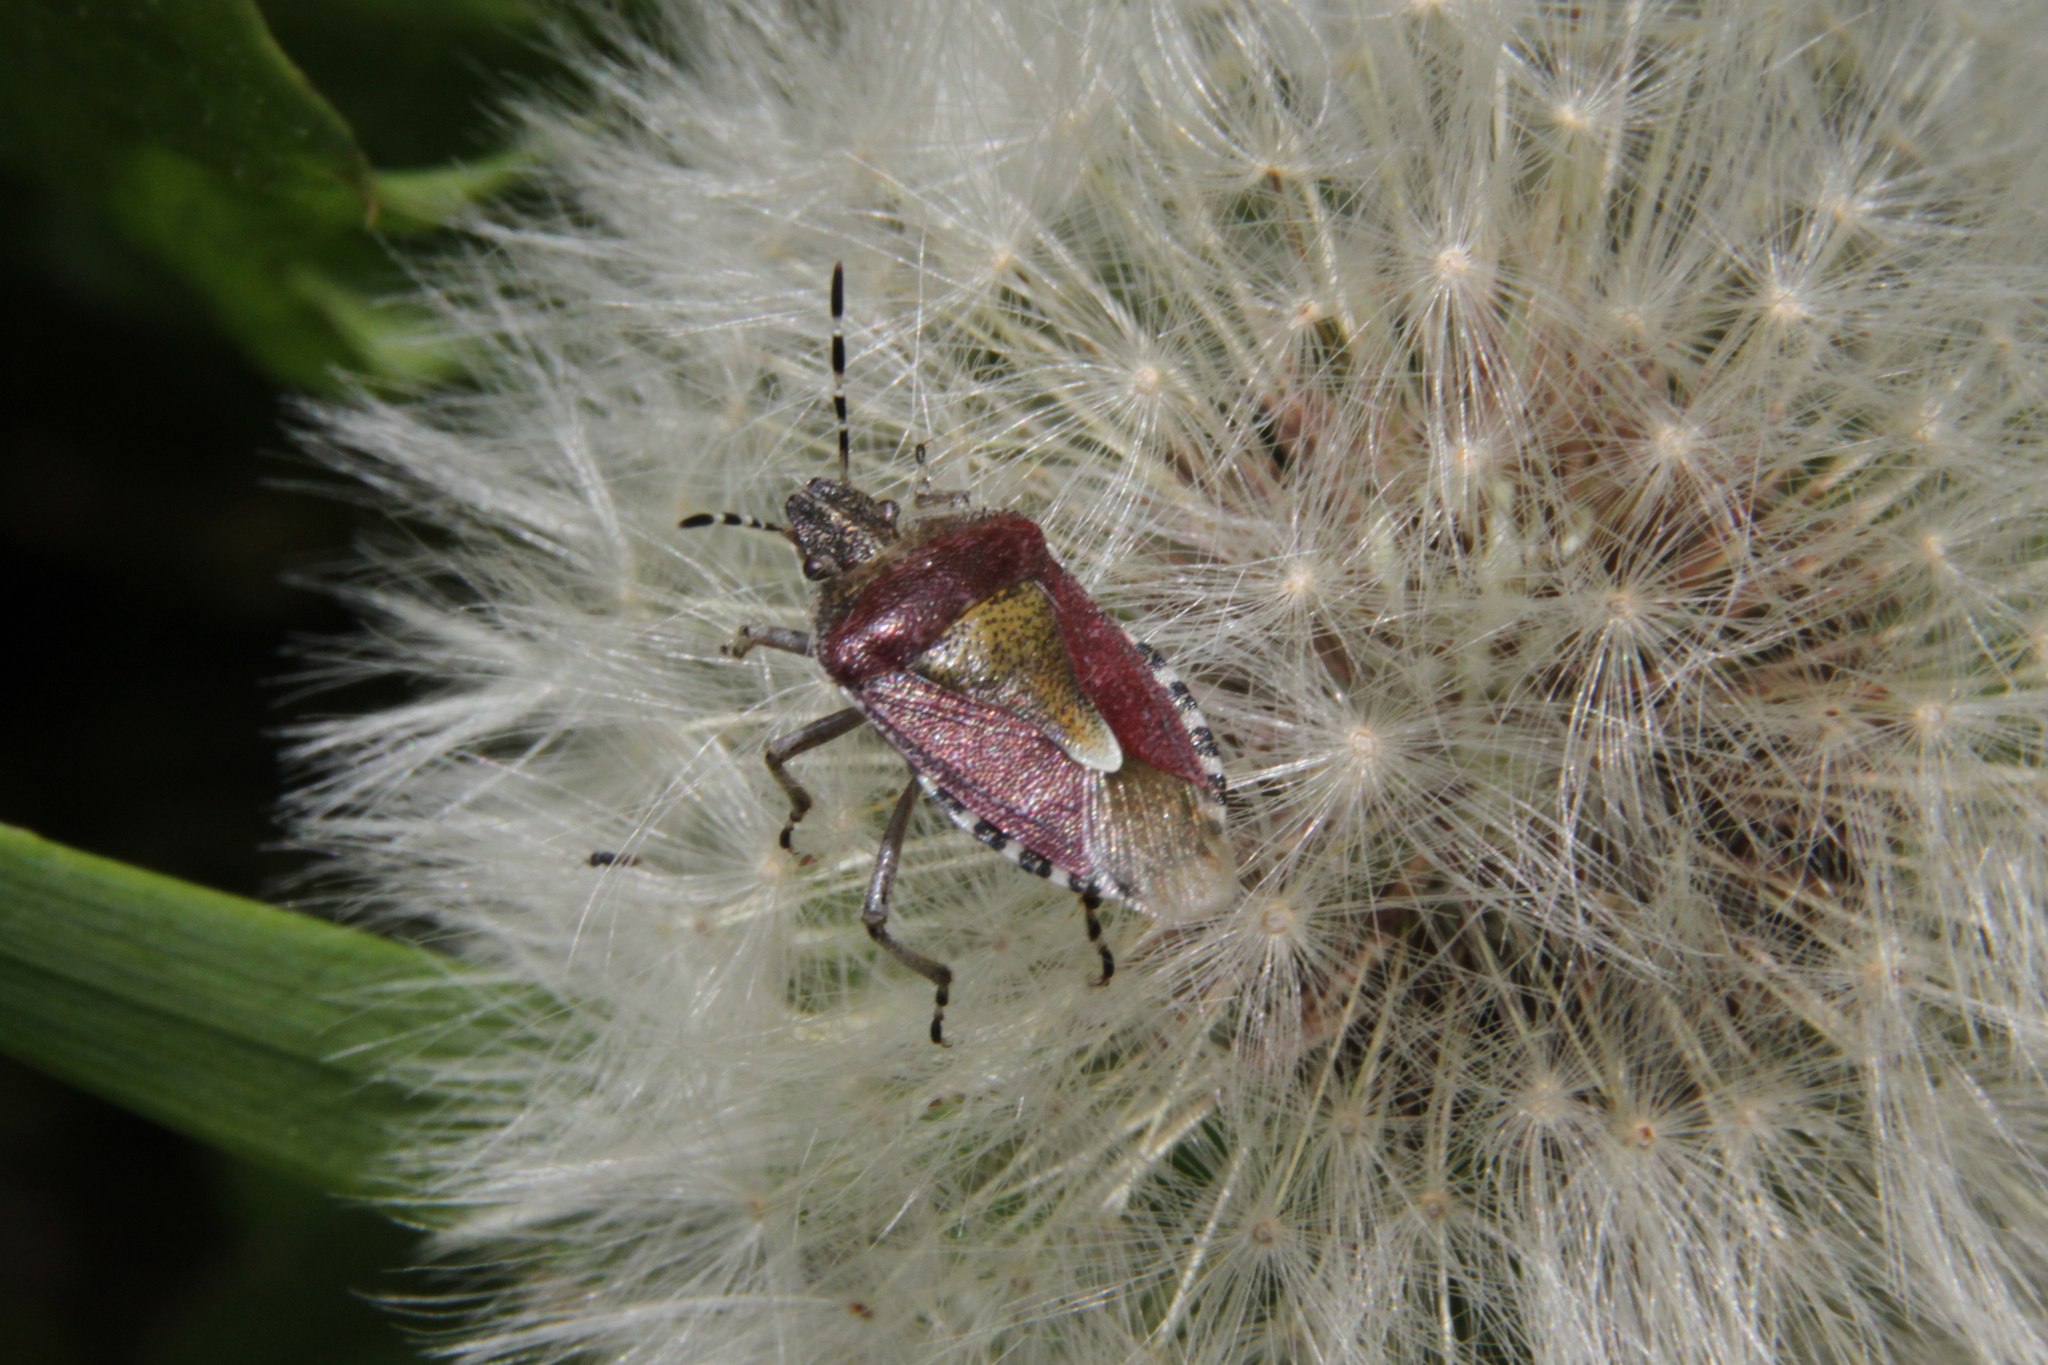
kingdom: Animalia
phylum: Arthropoda
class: Insecta
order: Hemiptera
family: Pentatomidae
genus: Dolycoris
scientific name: Dolycoris baccarum
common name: Sloe bug
